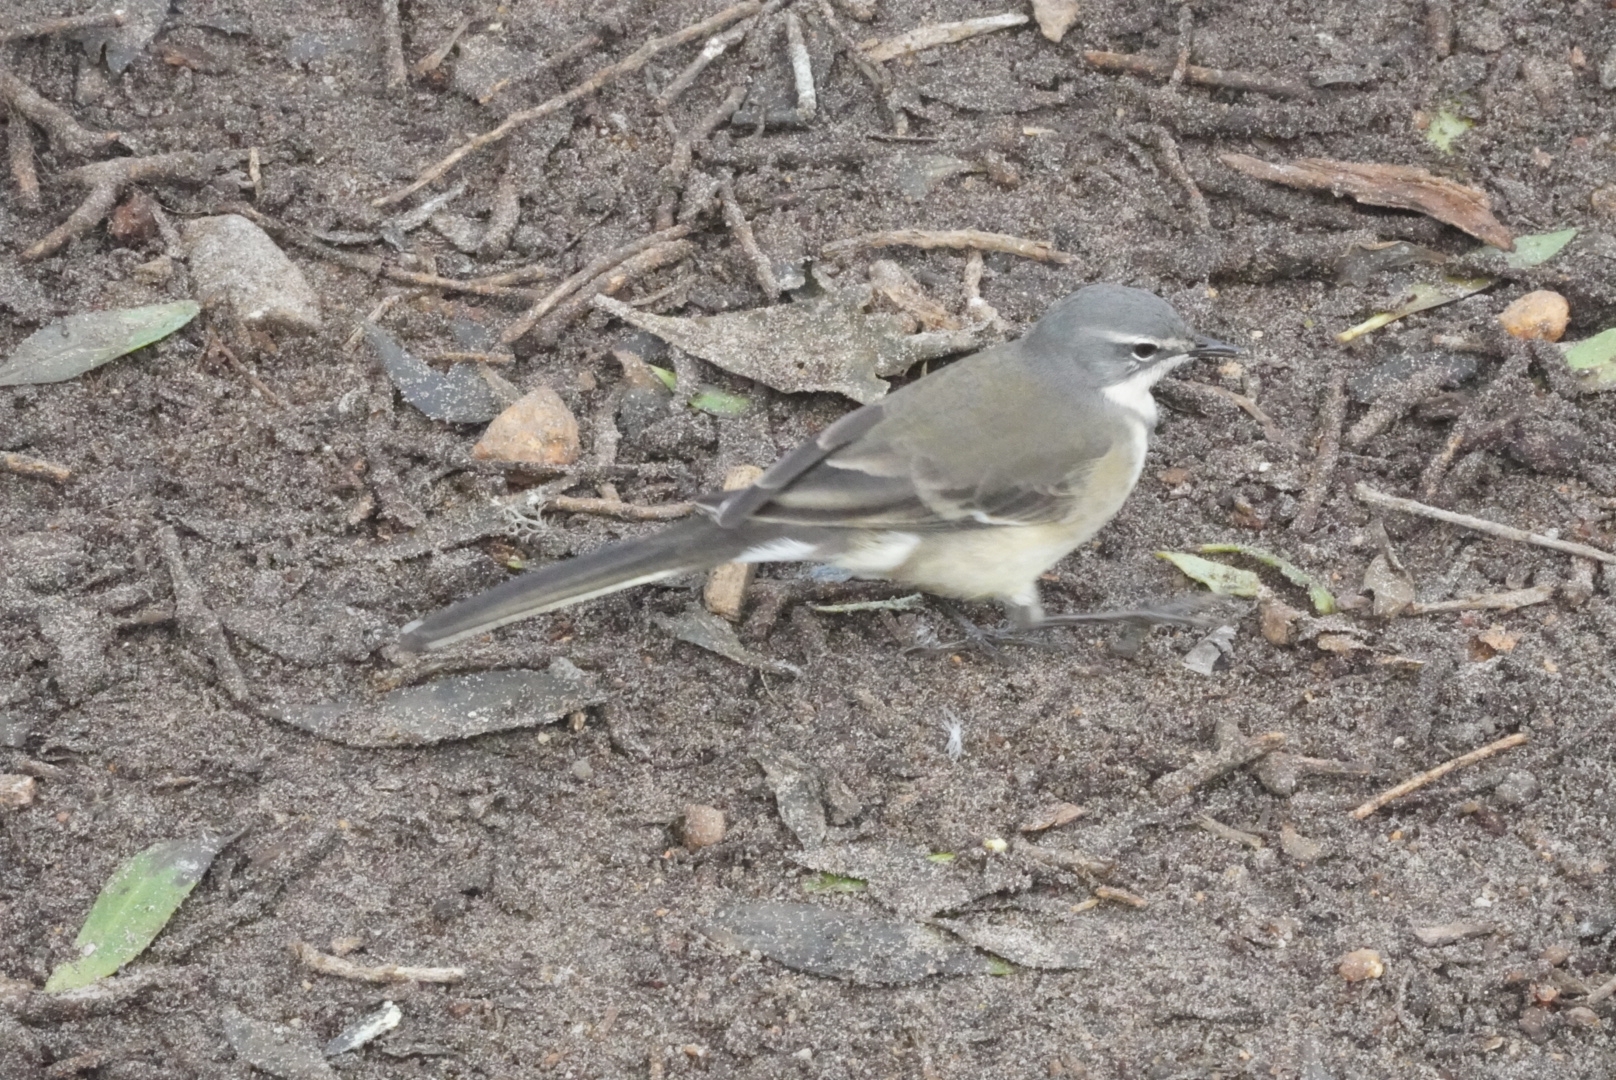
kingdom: Animalia
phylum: Chordata
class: Aves
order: Passeriformes
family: Motacillidae
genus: Motacilla
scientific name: Motacilla capensis
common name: Cape wagtail
